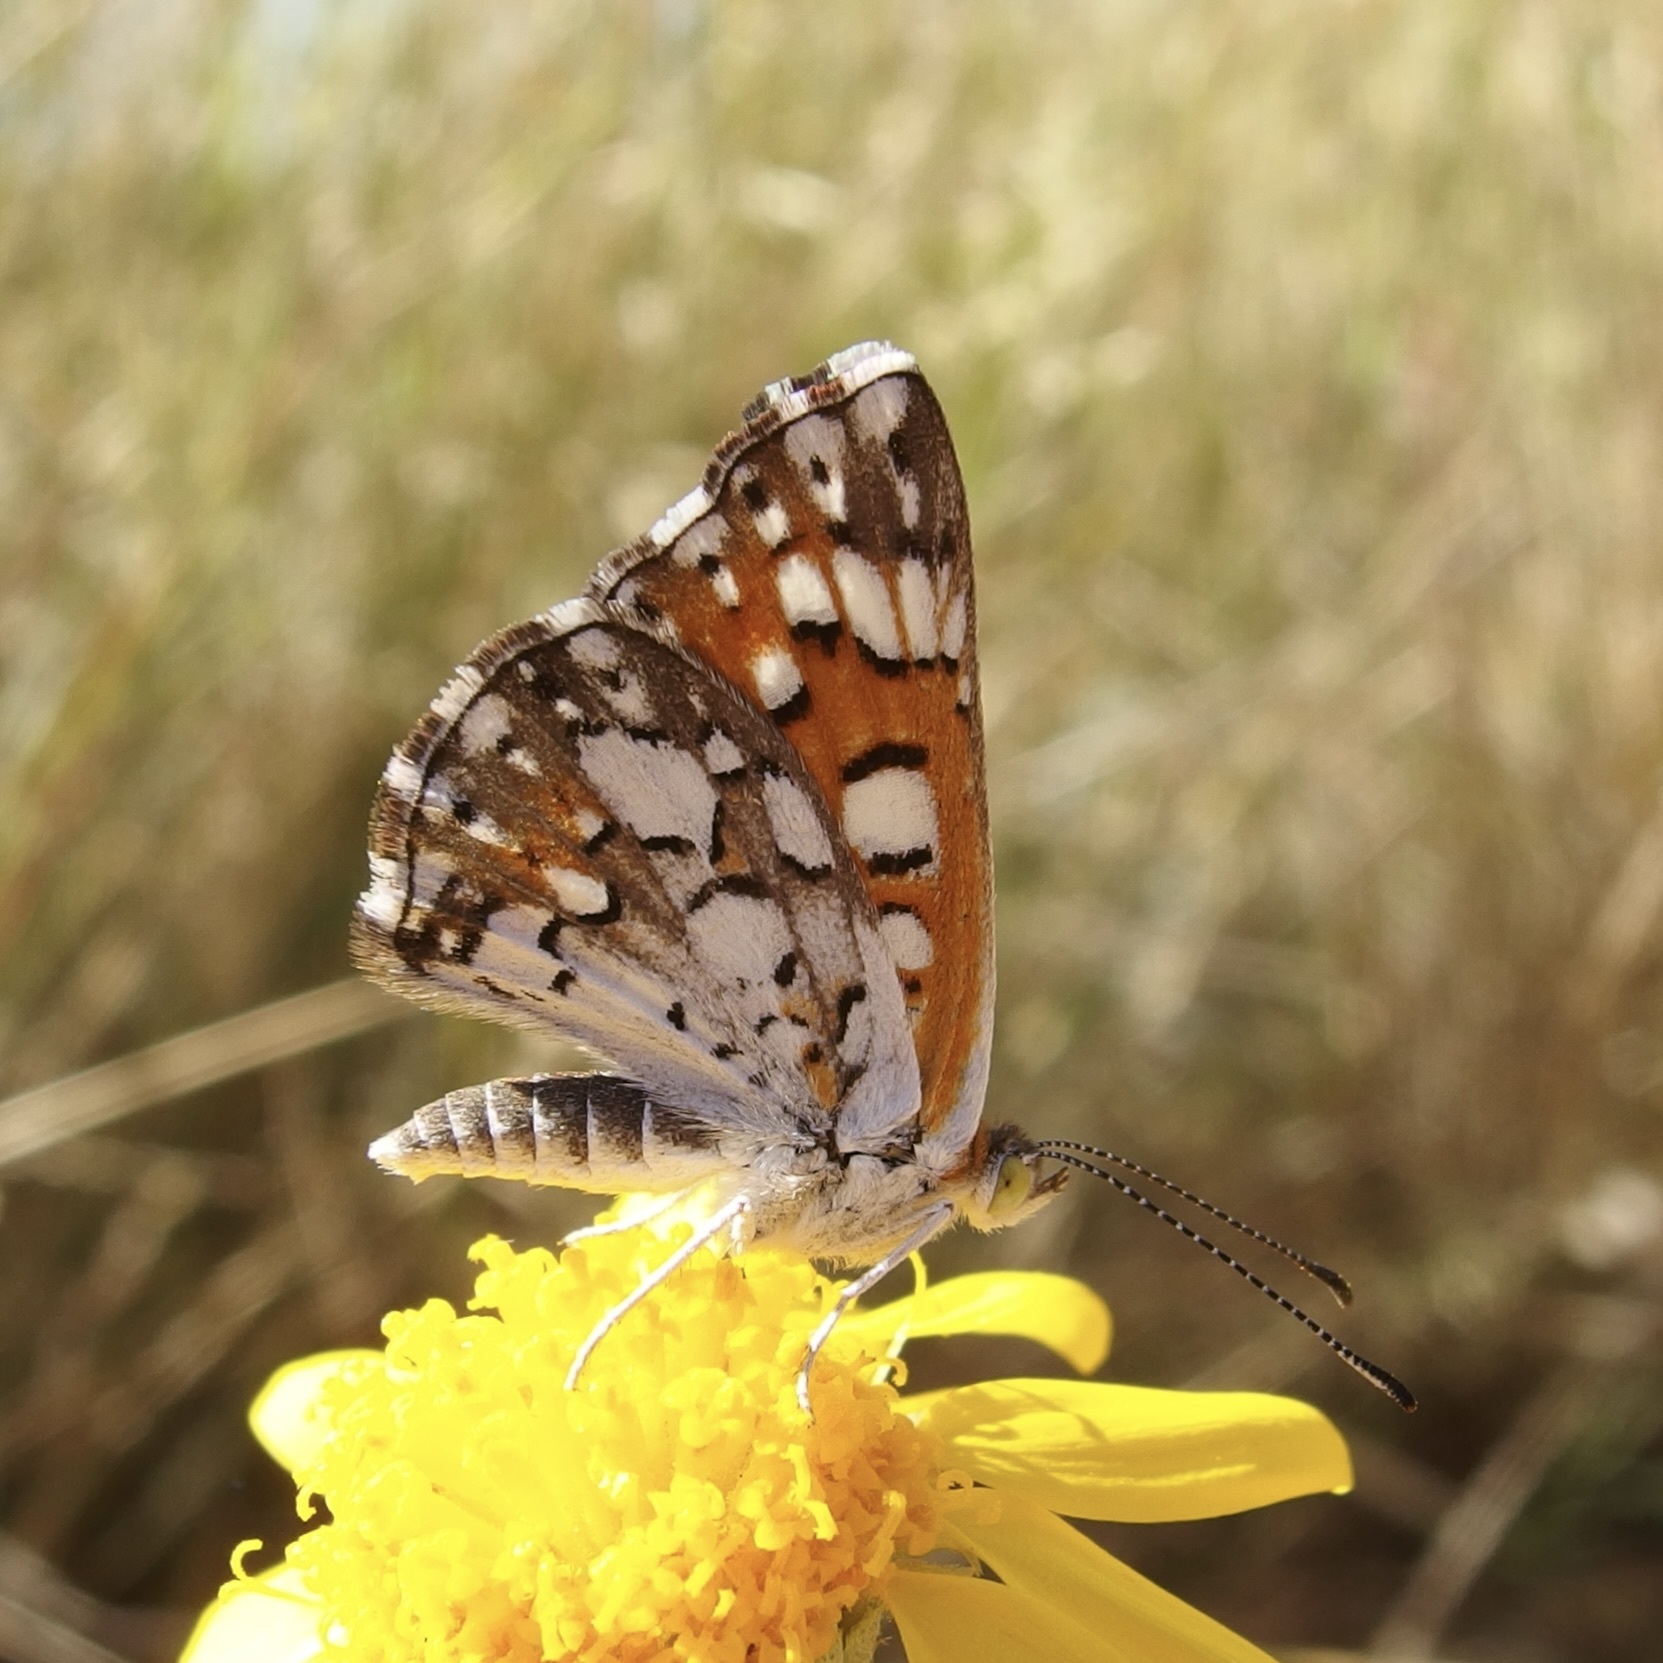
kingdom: Animalia
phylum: Arthropoda
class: Insecta
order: Lepidoptera
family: Riodinidae
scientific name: Riodinidae
